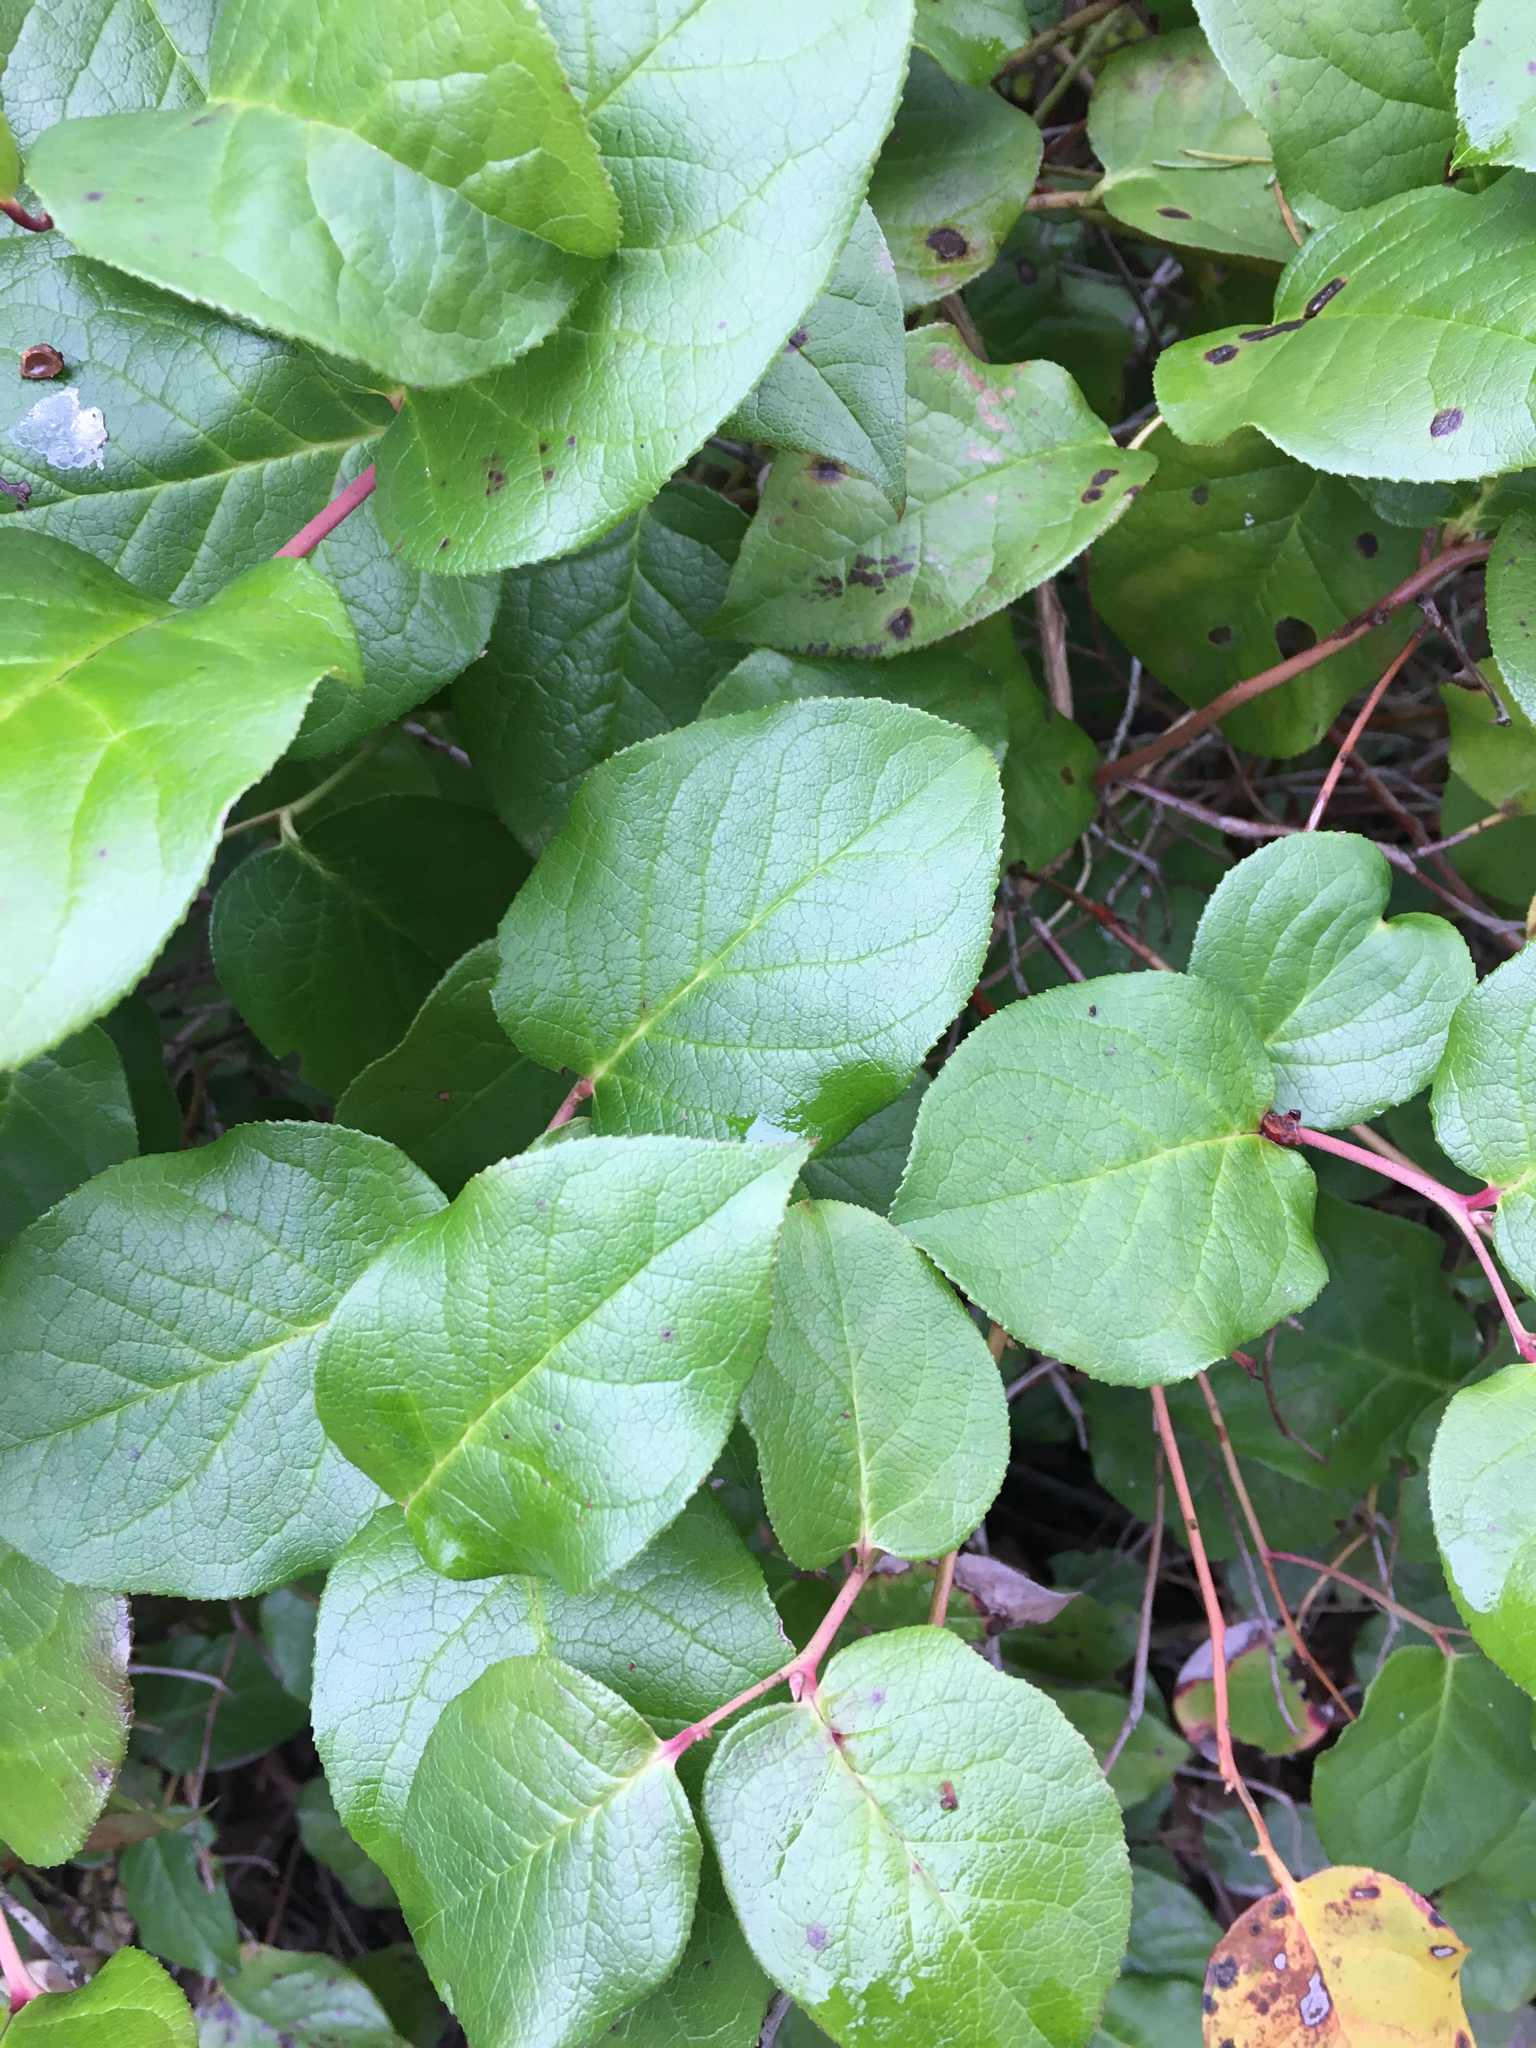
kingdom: Plantae
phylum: Tracheophyta
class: Magnoliopsida
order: Ericales
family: Ericaceae
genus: Gaultheria
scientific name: Gaultheria shallon
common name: Shallon
